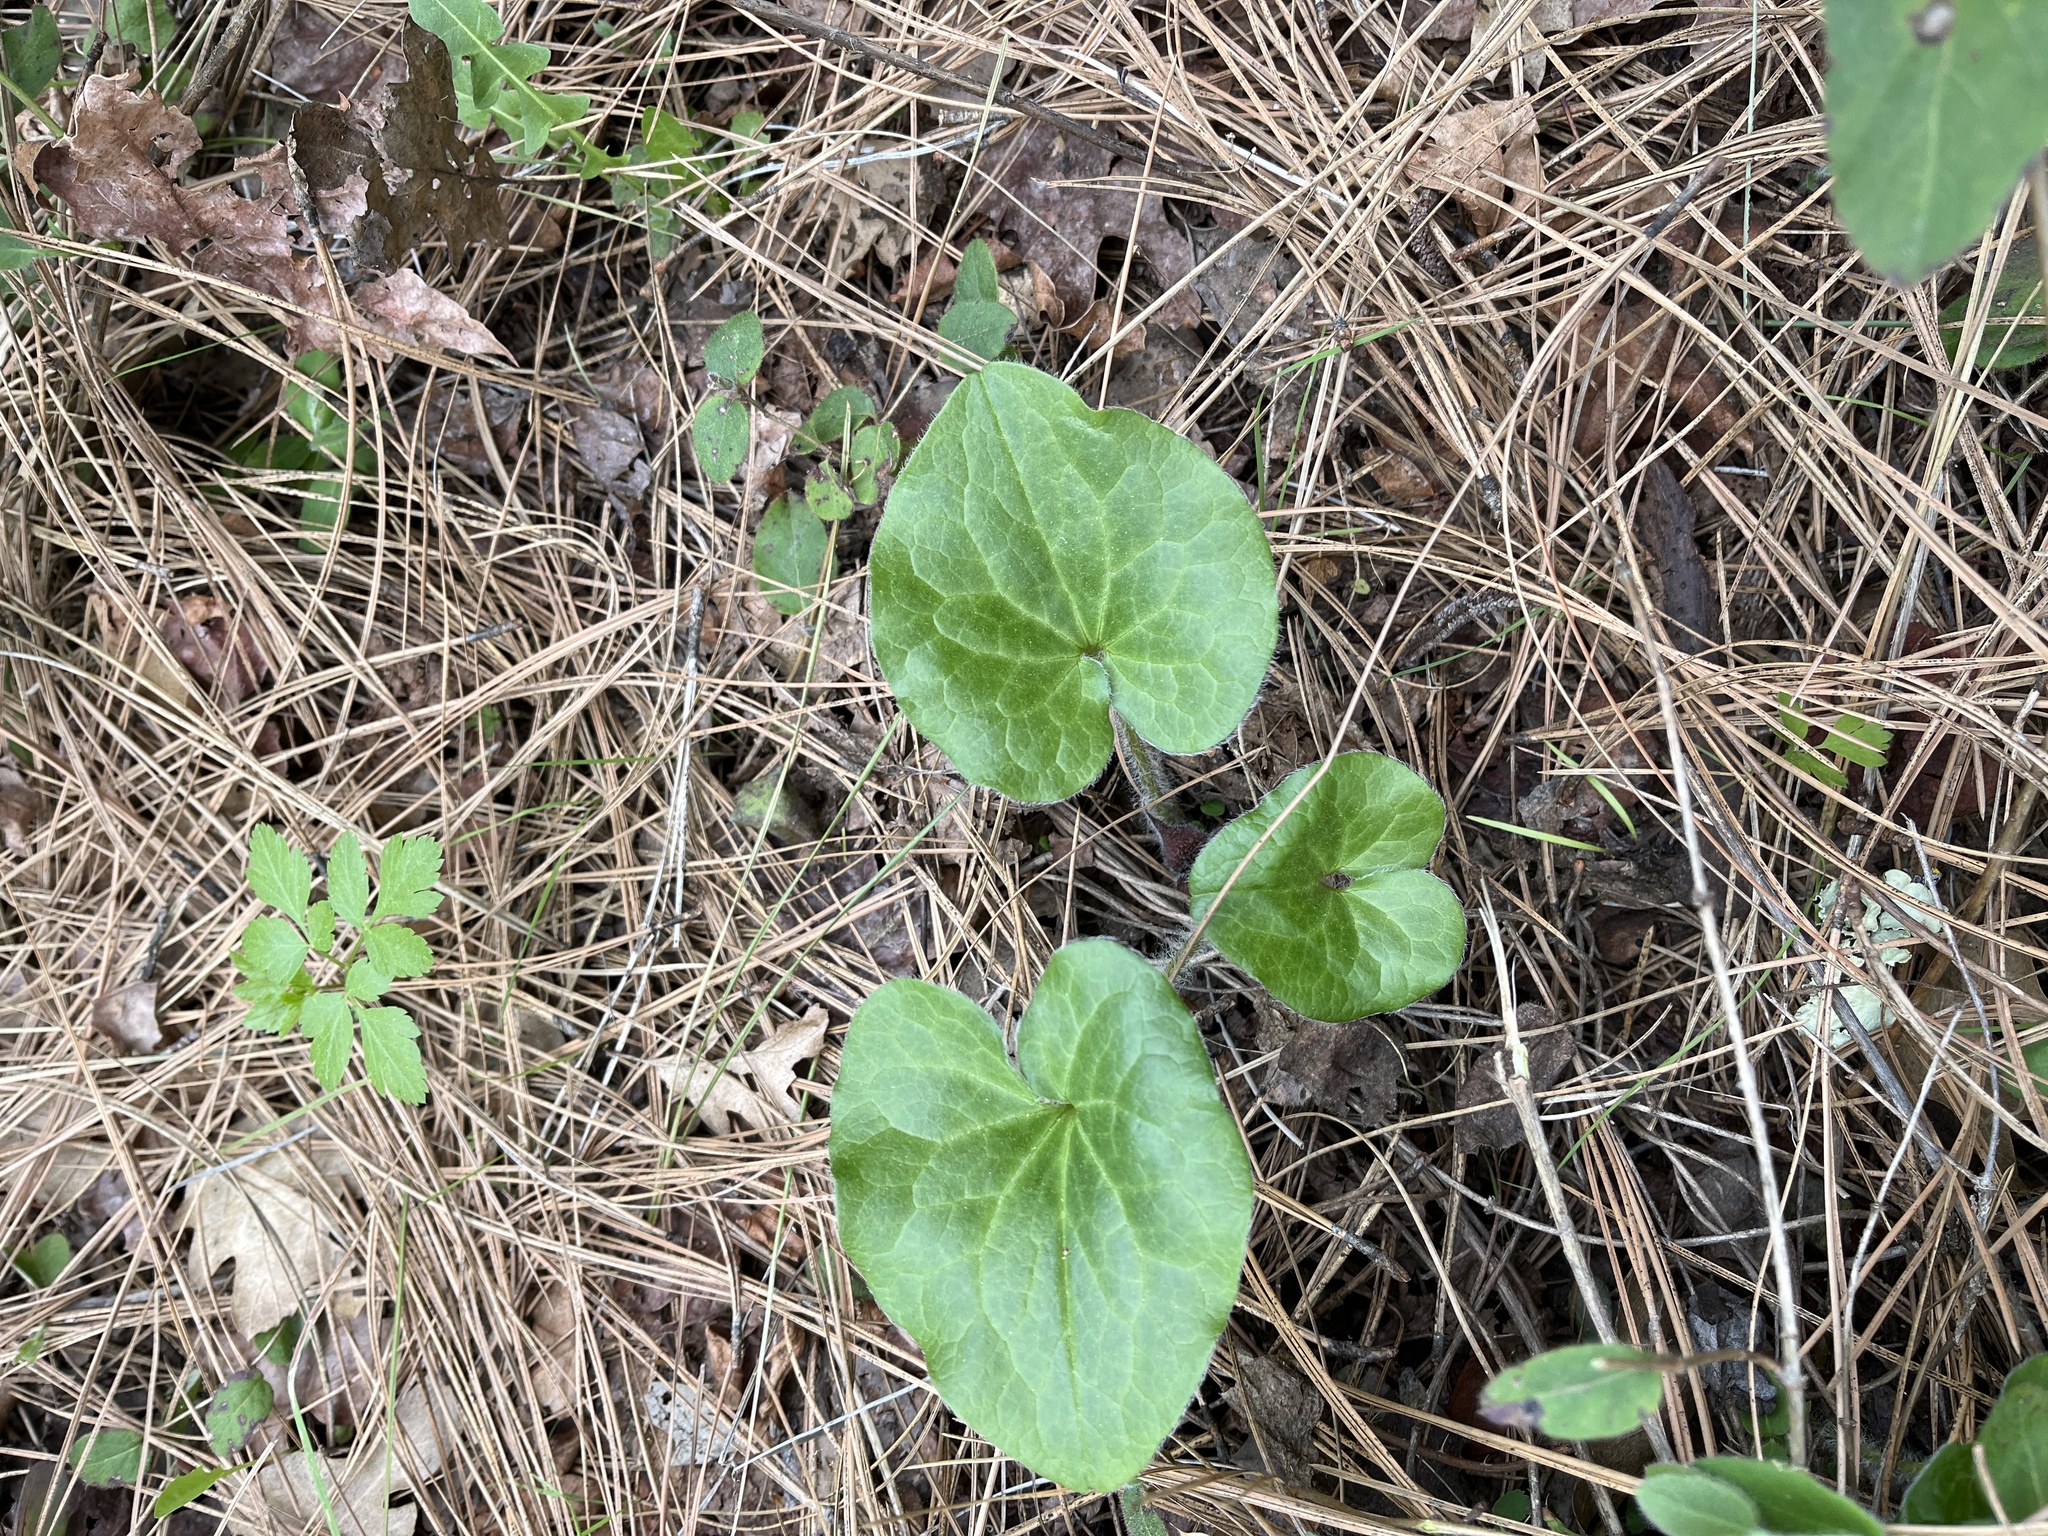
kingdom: Plantae
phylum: Tracheophyta
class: Magnoliopsida
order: Piperales
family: Aristolochiaceae
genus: Asarum
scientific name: Asarum hartwegii
